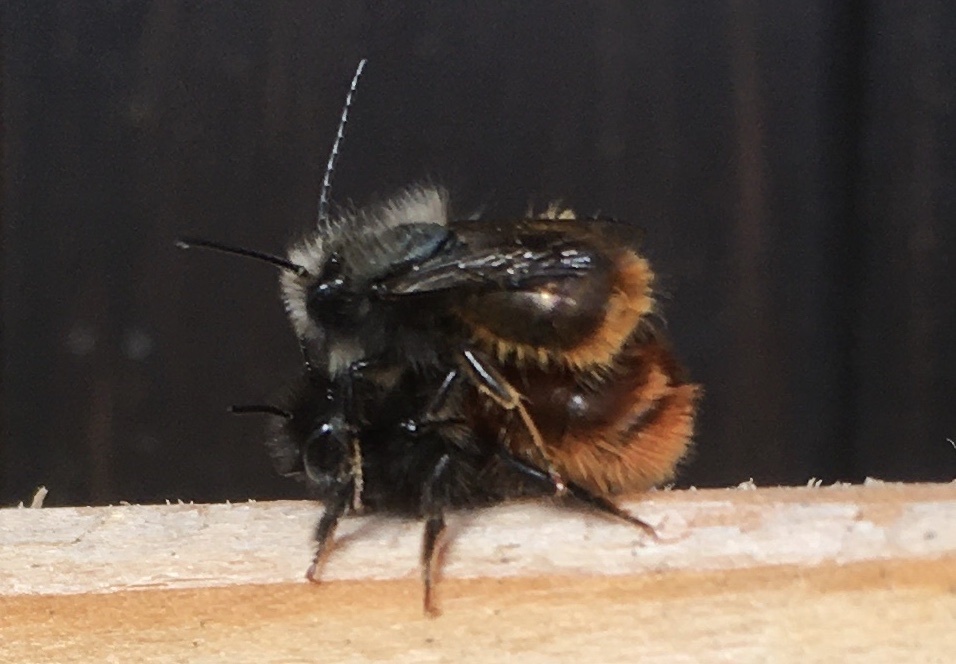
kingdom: Animalia
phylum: Arthropoda
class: Insecta
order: Hymenoptera
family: Megachilidae
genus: Osmia
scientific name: Osmia cornuta
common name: Mason bee
